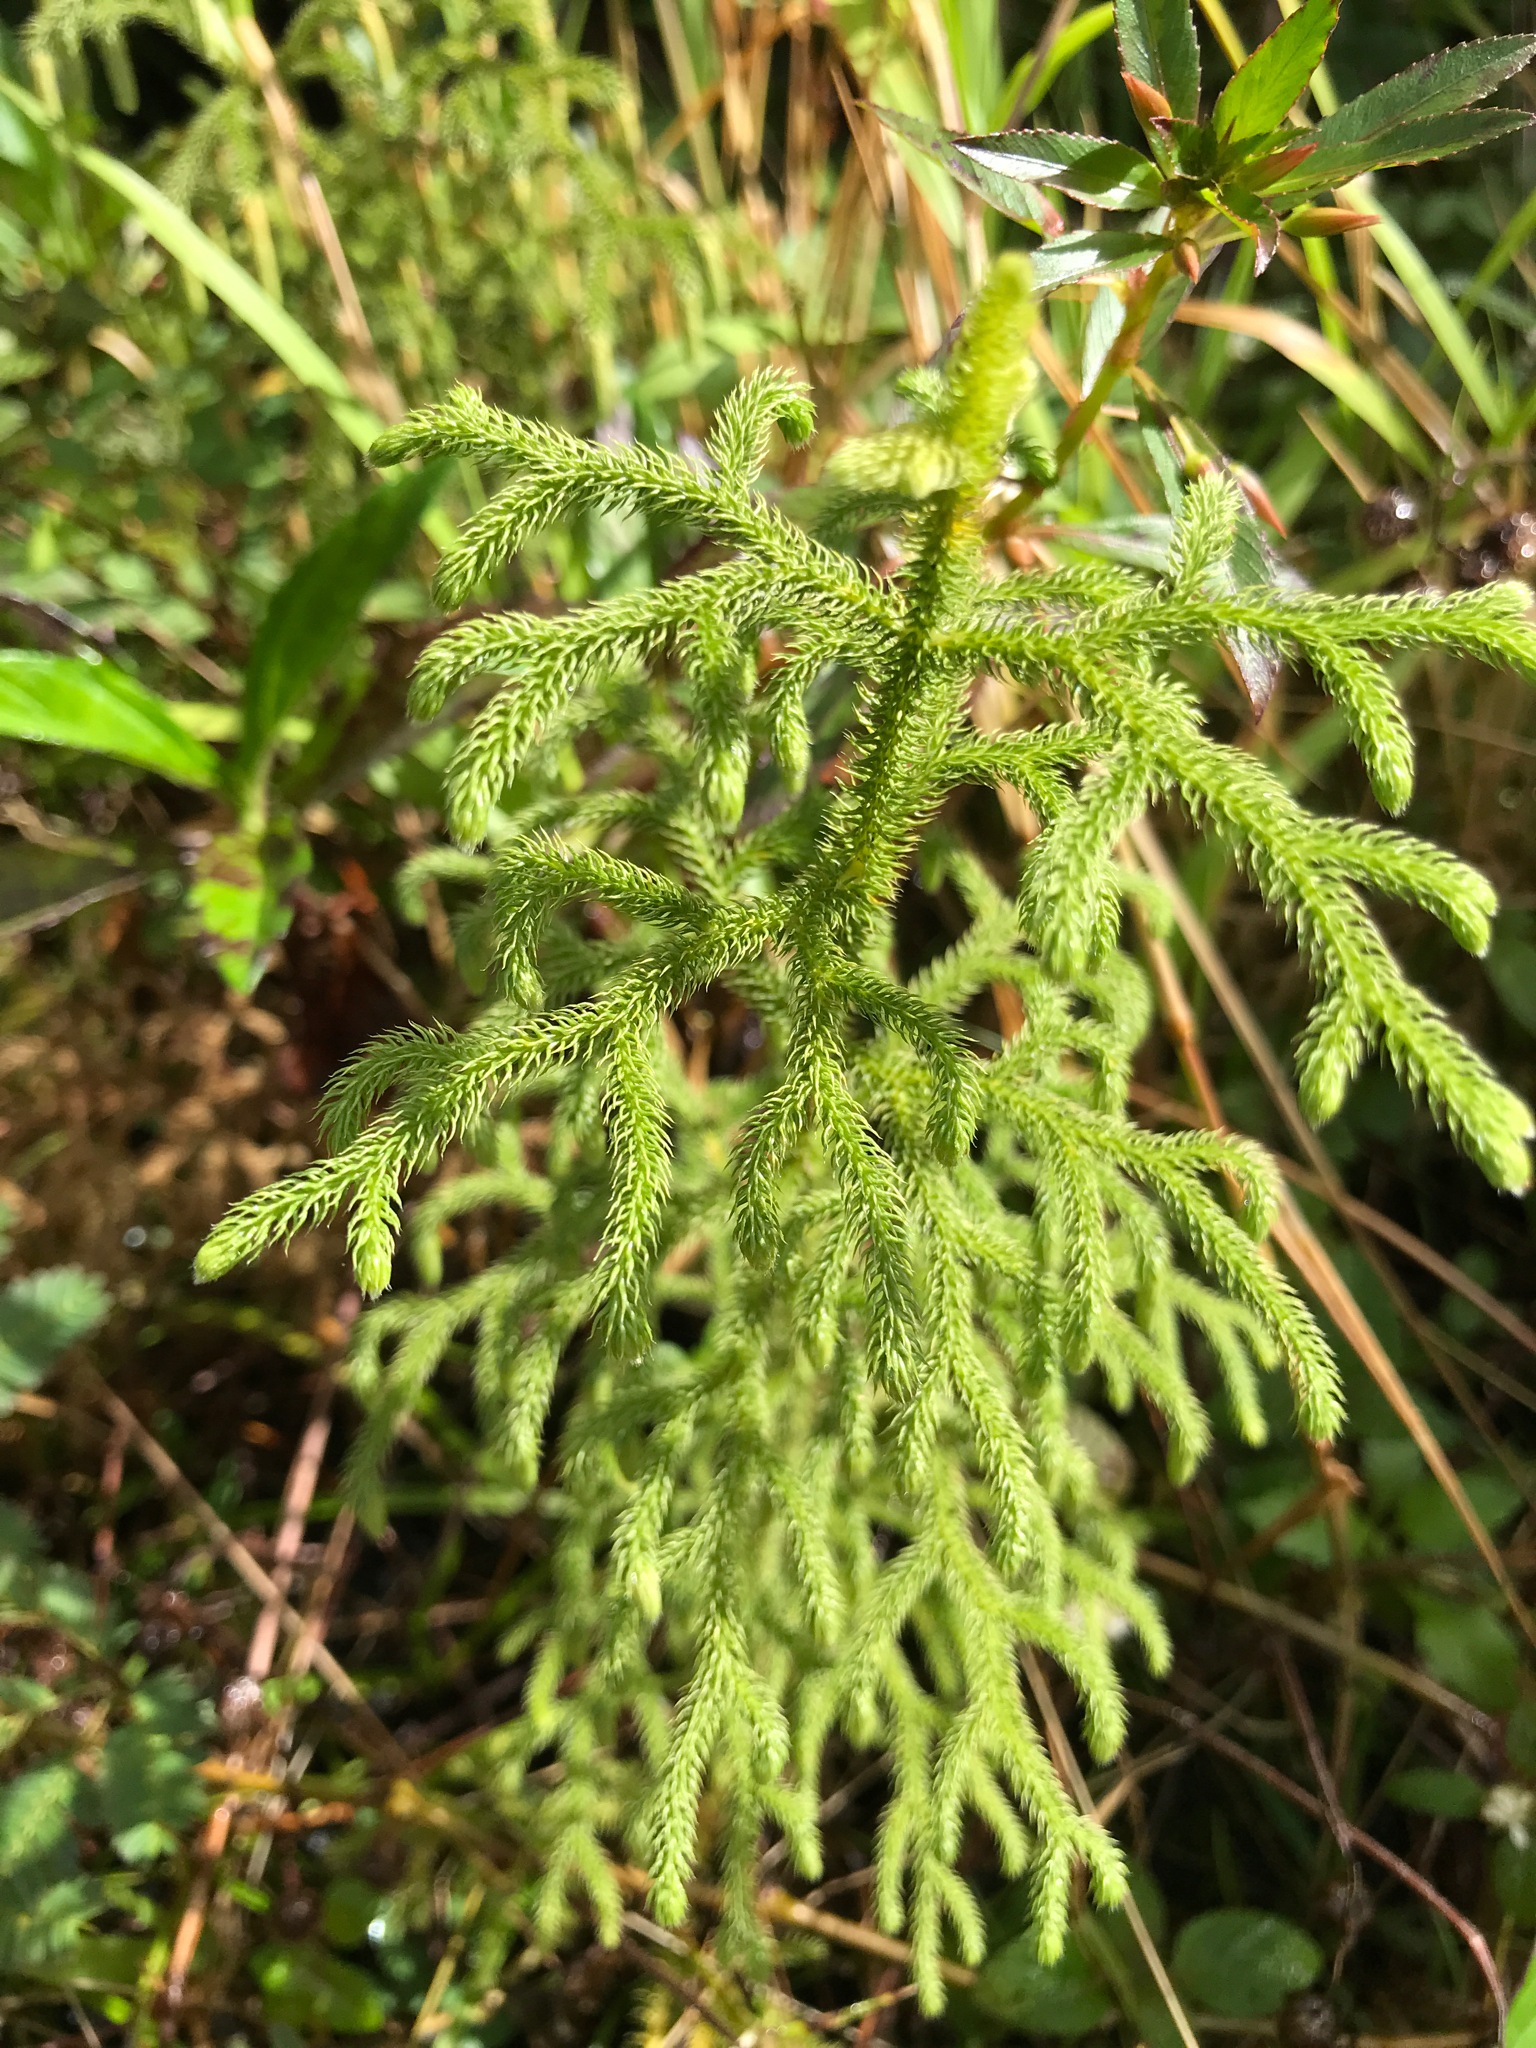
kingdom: Plantae
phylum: Tracheophyta
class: Lycopodiopsida
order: Lycopodiales
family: Lycopodiaceae
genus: Palhinhaea
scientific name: Palhinhaea cernua
